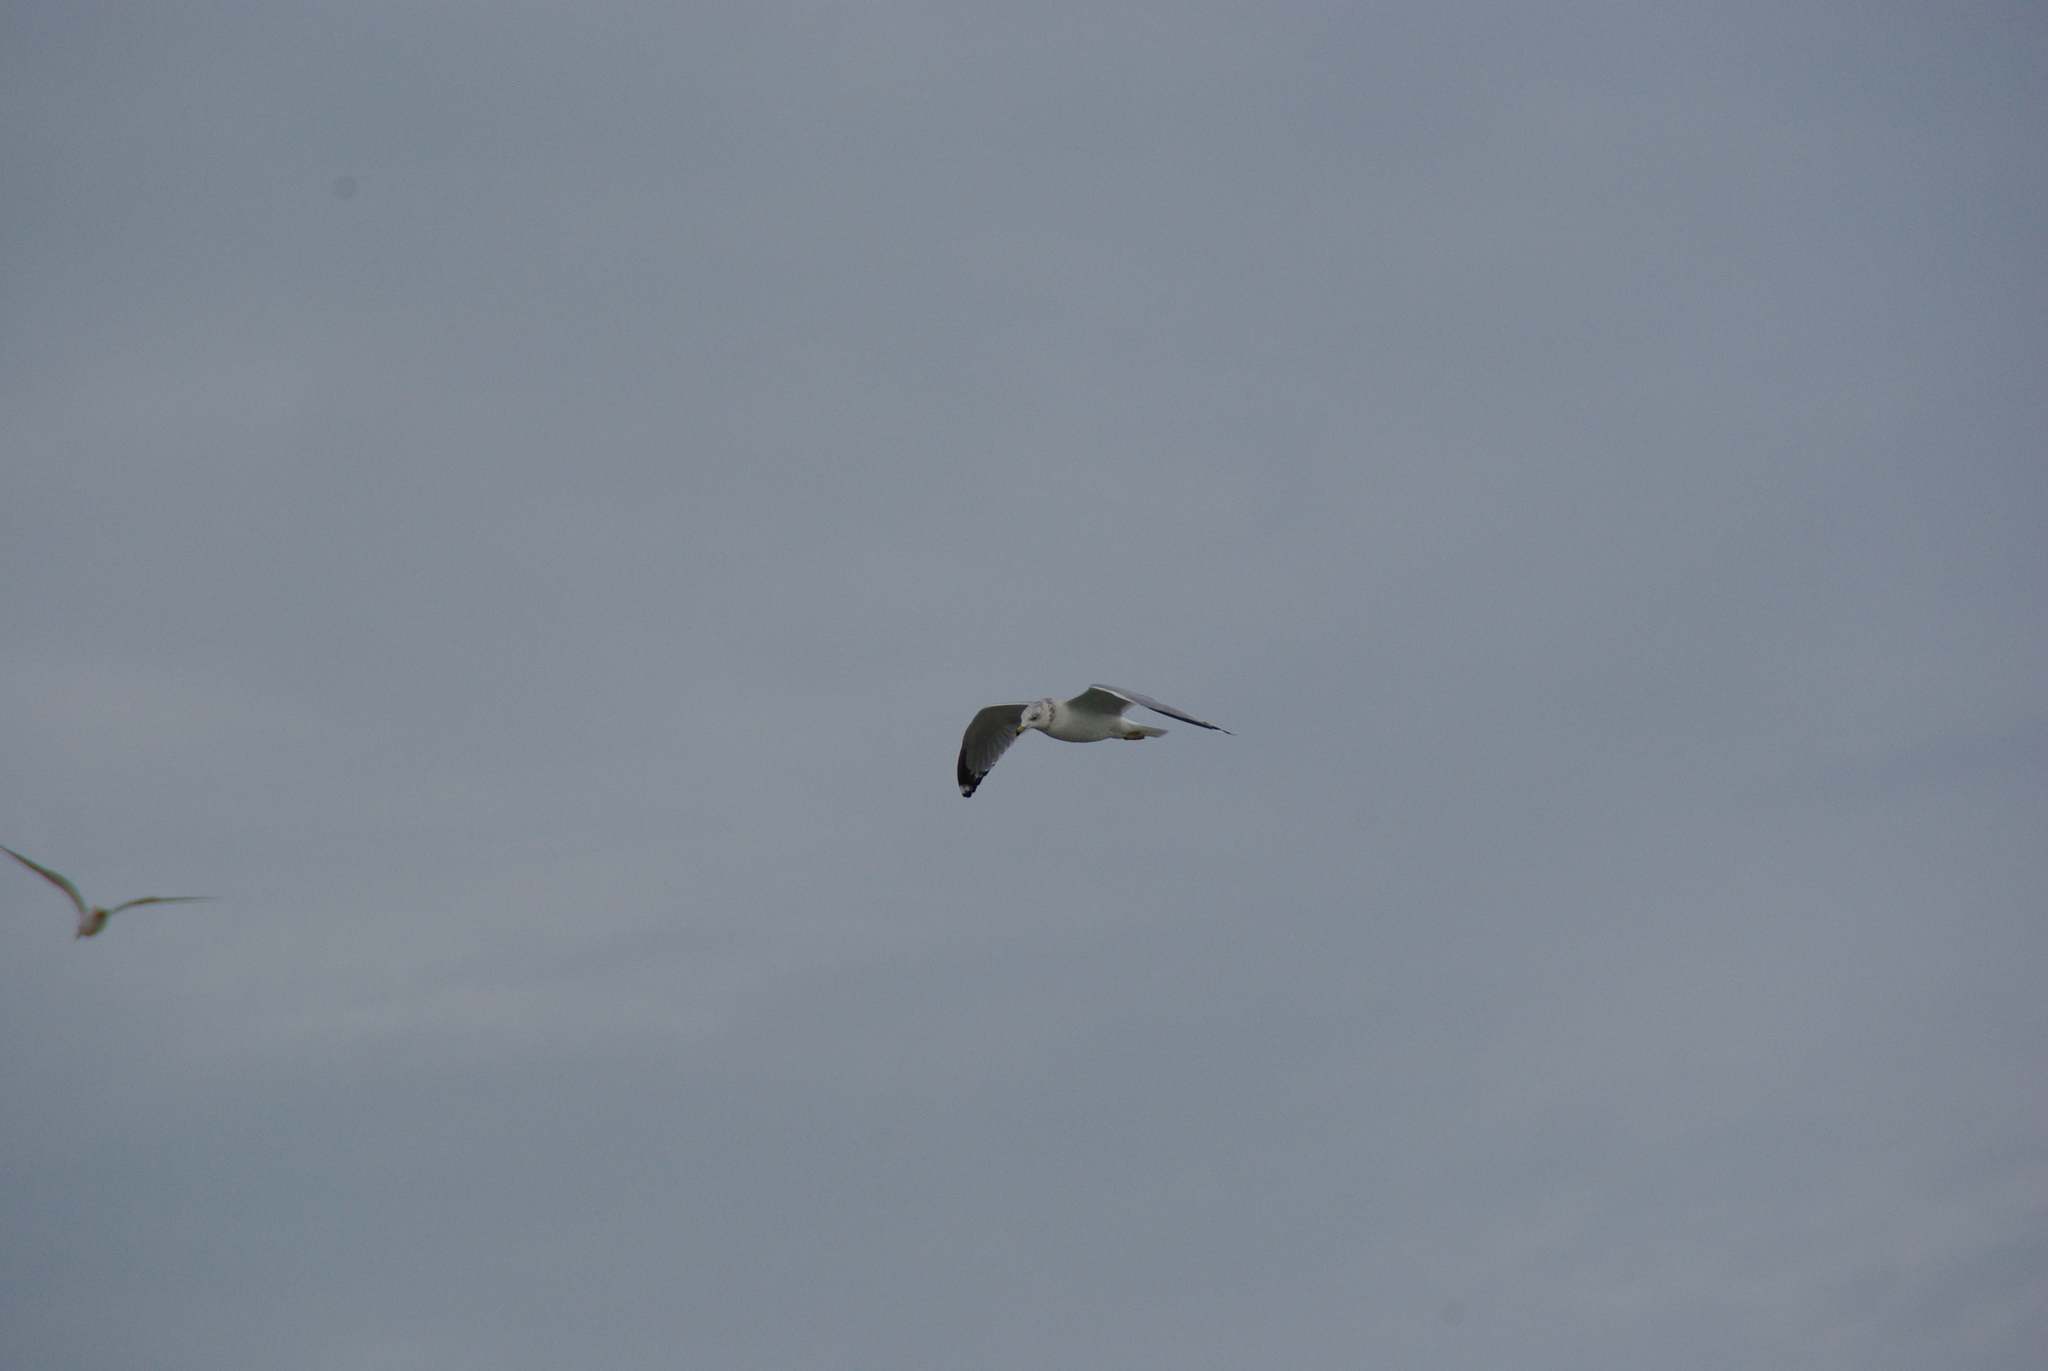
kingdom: Animalia
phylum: Chordata
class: Aves
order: Charadriiformes
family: Laridae
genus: Larus
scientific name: Larus delawarensis
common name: Ring-billed gull
